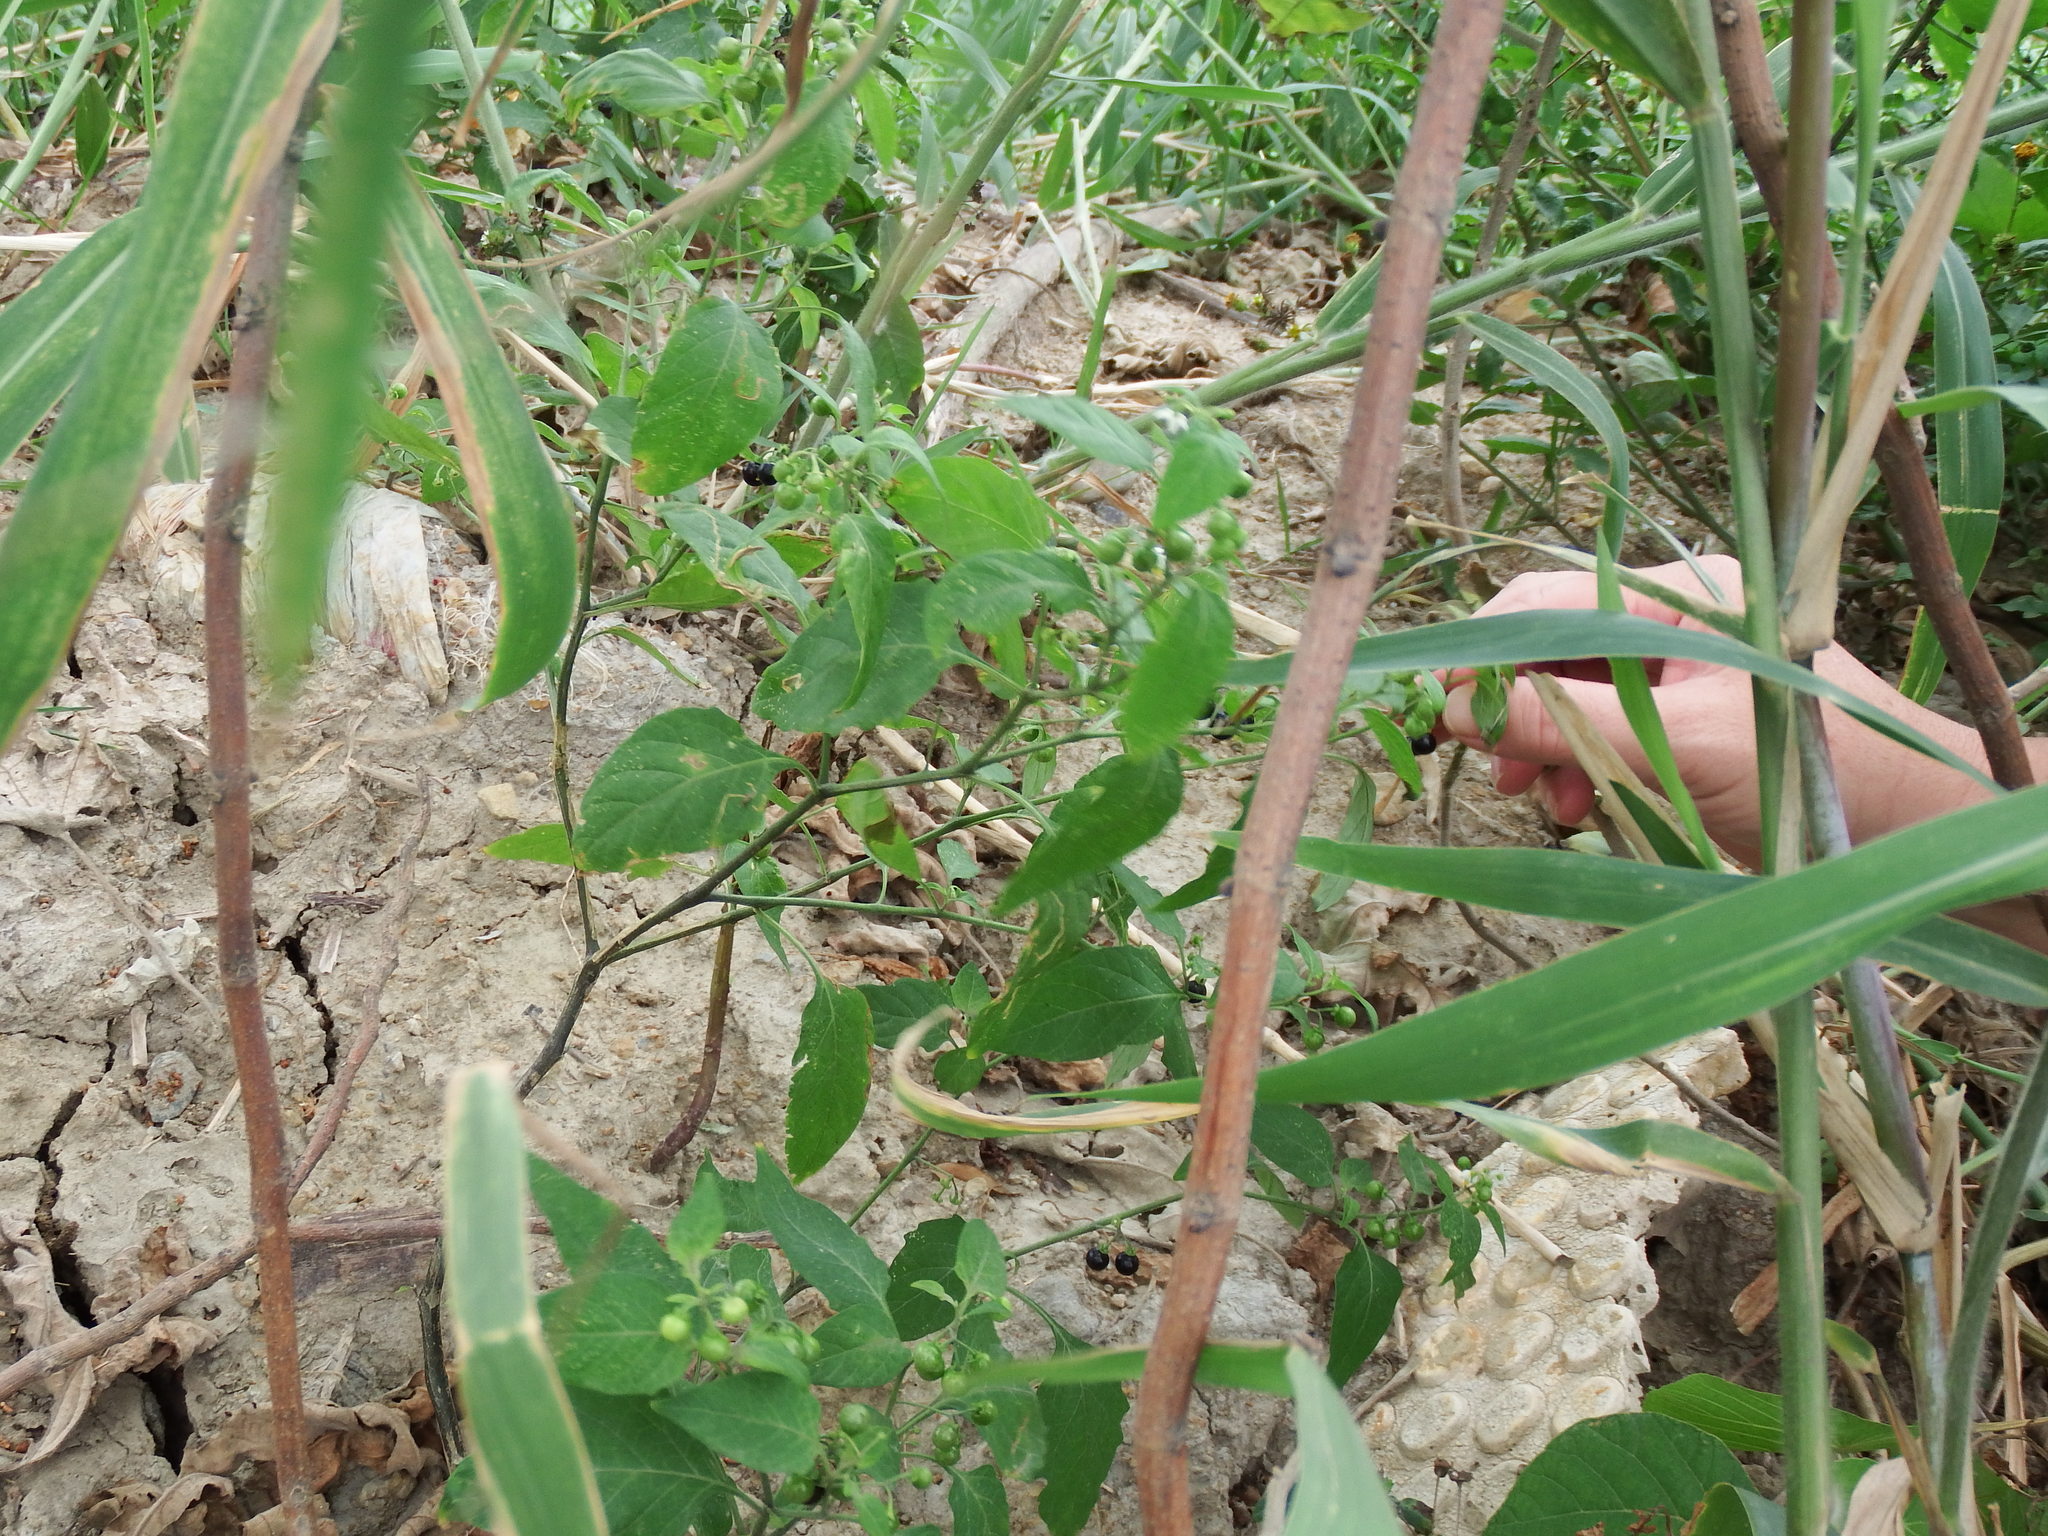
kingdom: Plantae
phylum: Tracheophyta
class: Magnoliopsida
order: Solanales
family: Solanaceae
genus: Solanum
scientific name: Solanum americanum
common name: American black nightshade
